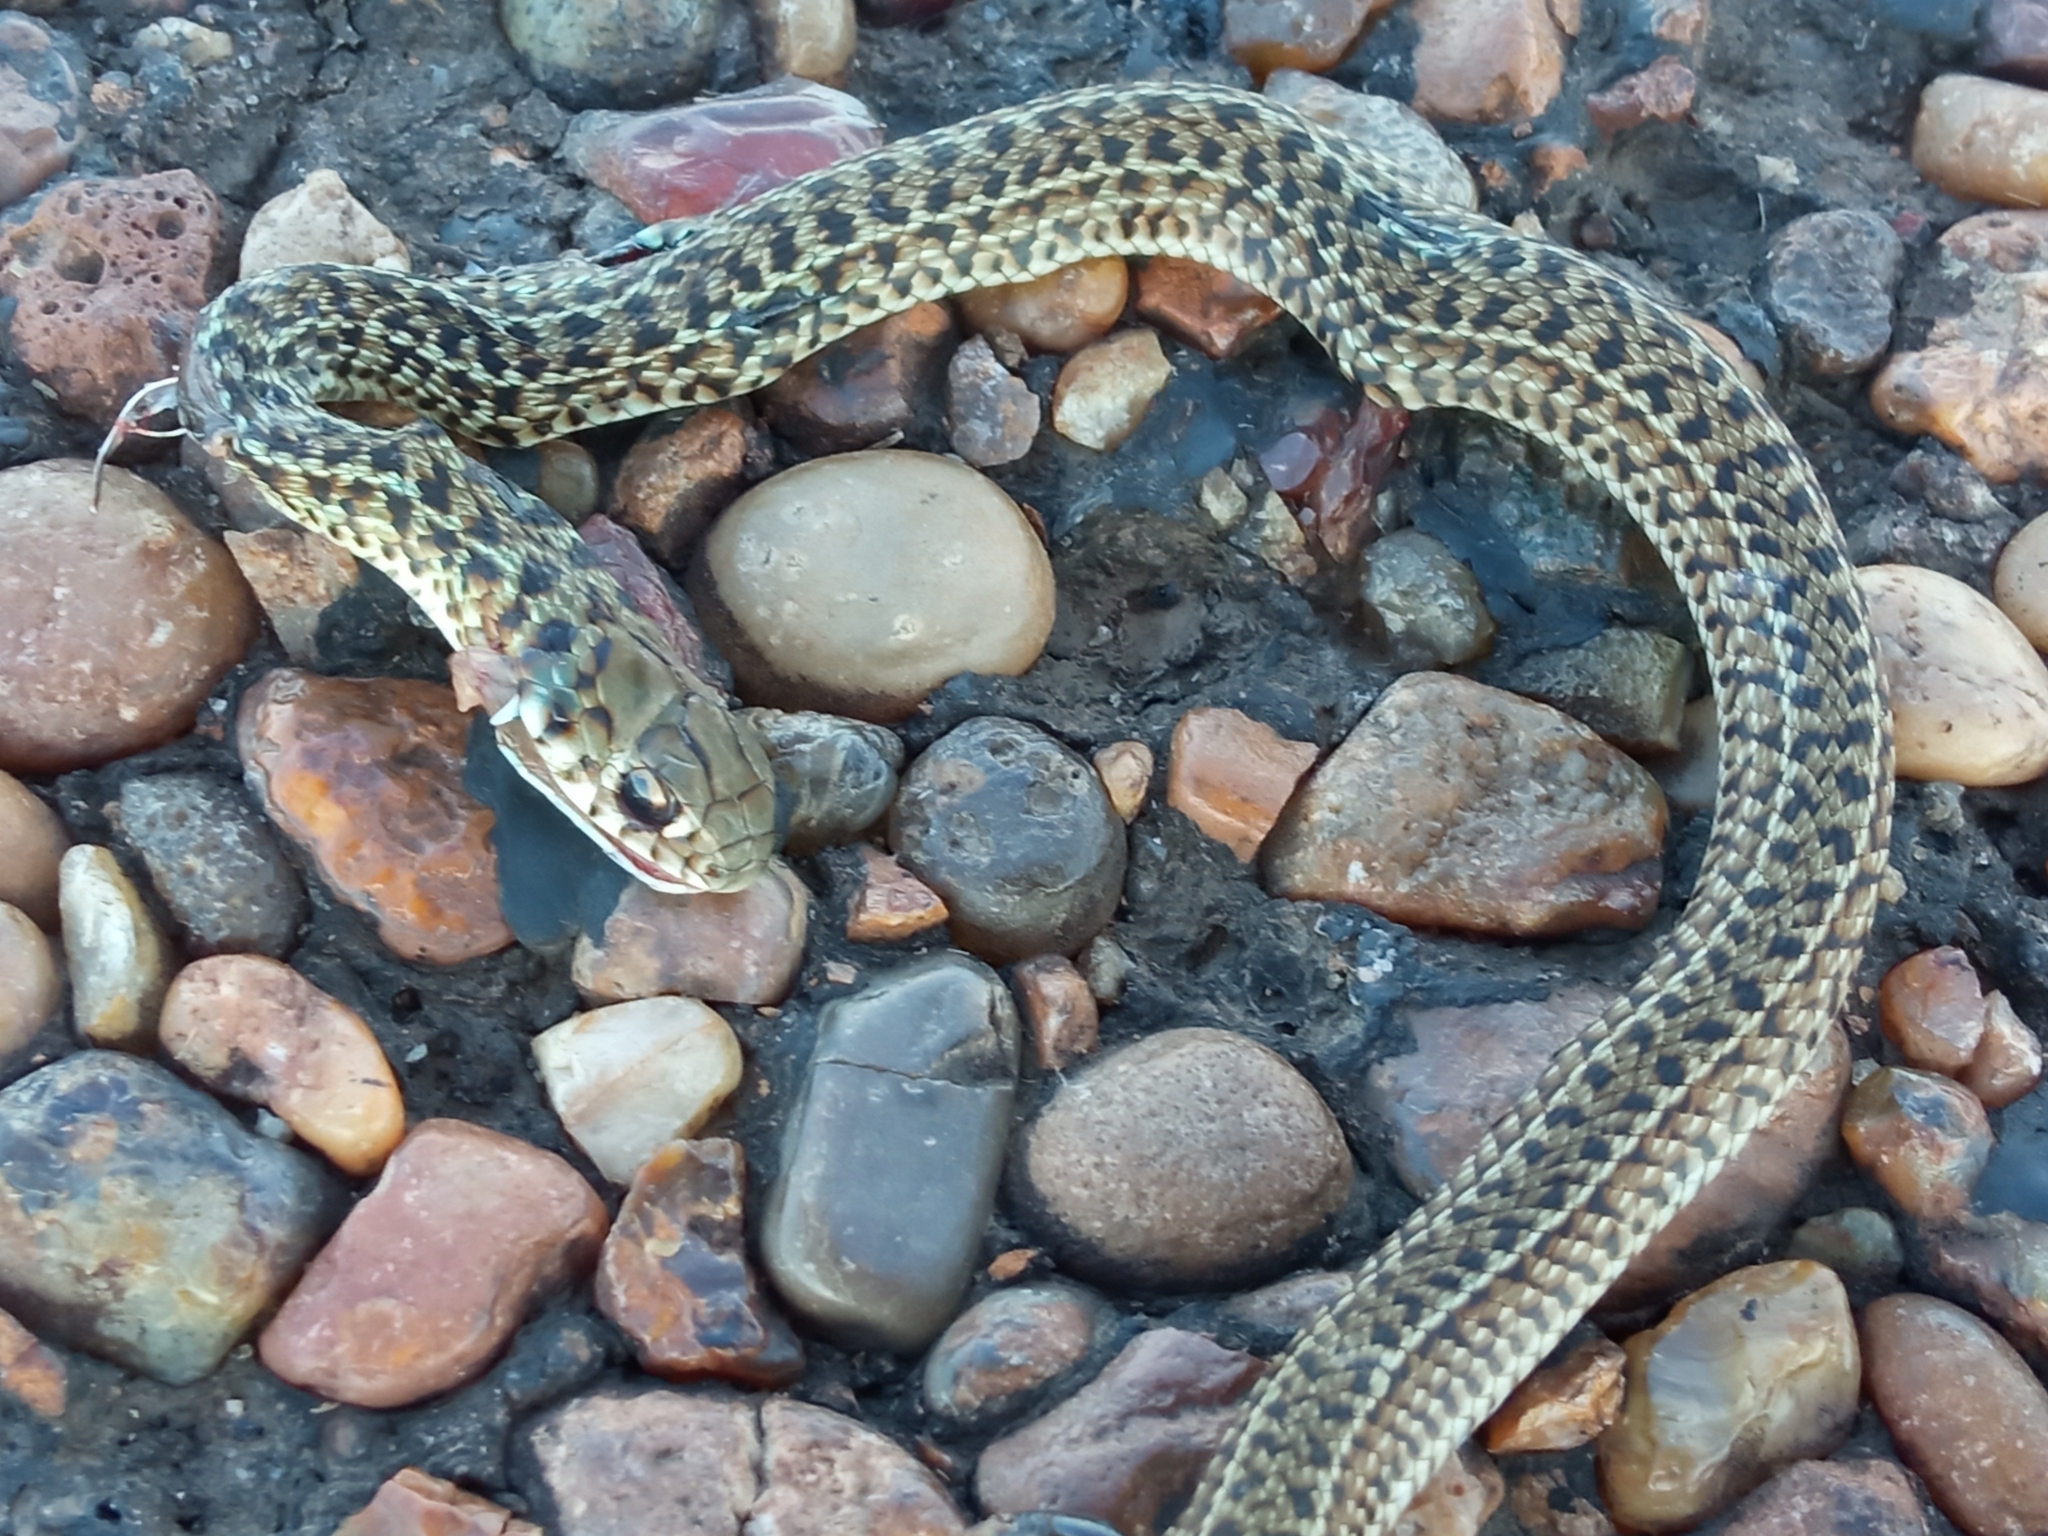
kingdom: Animalia
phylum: Chordata
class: Squamata
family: Colubridae
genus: Philodryas
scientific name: Philodryas patagoniensis
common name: Patagonia green racer
